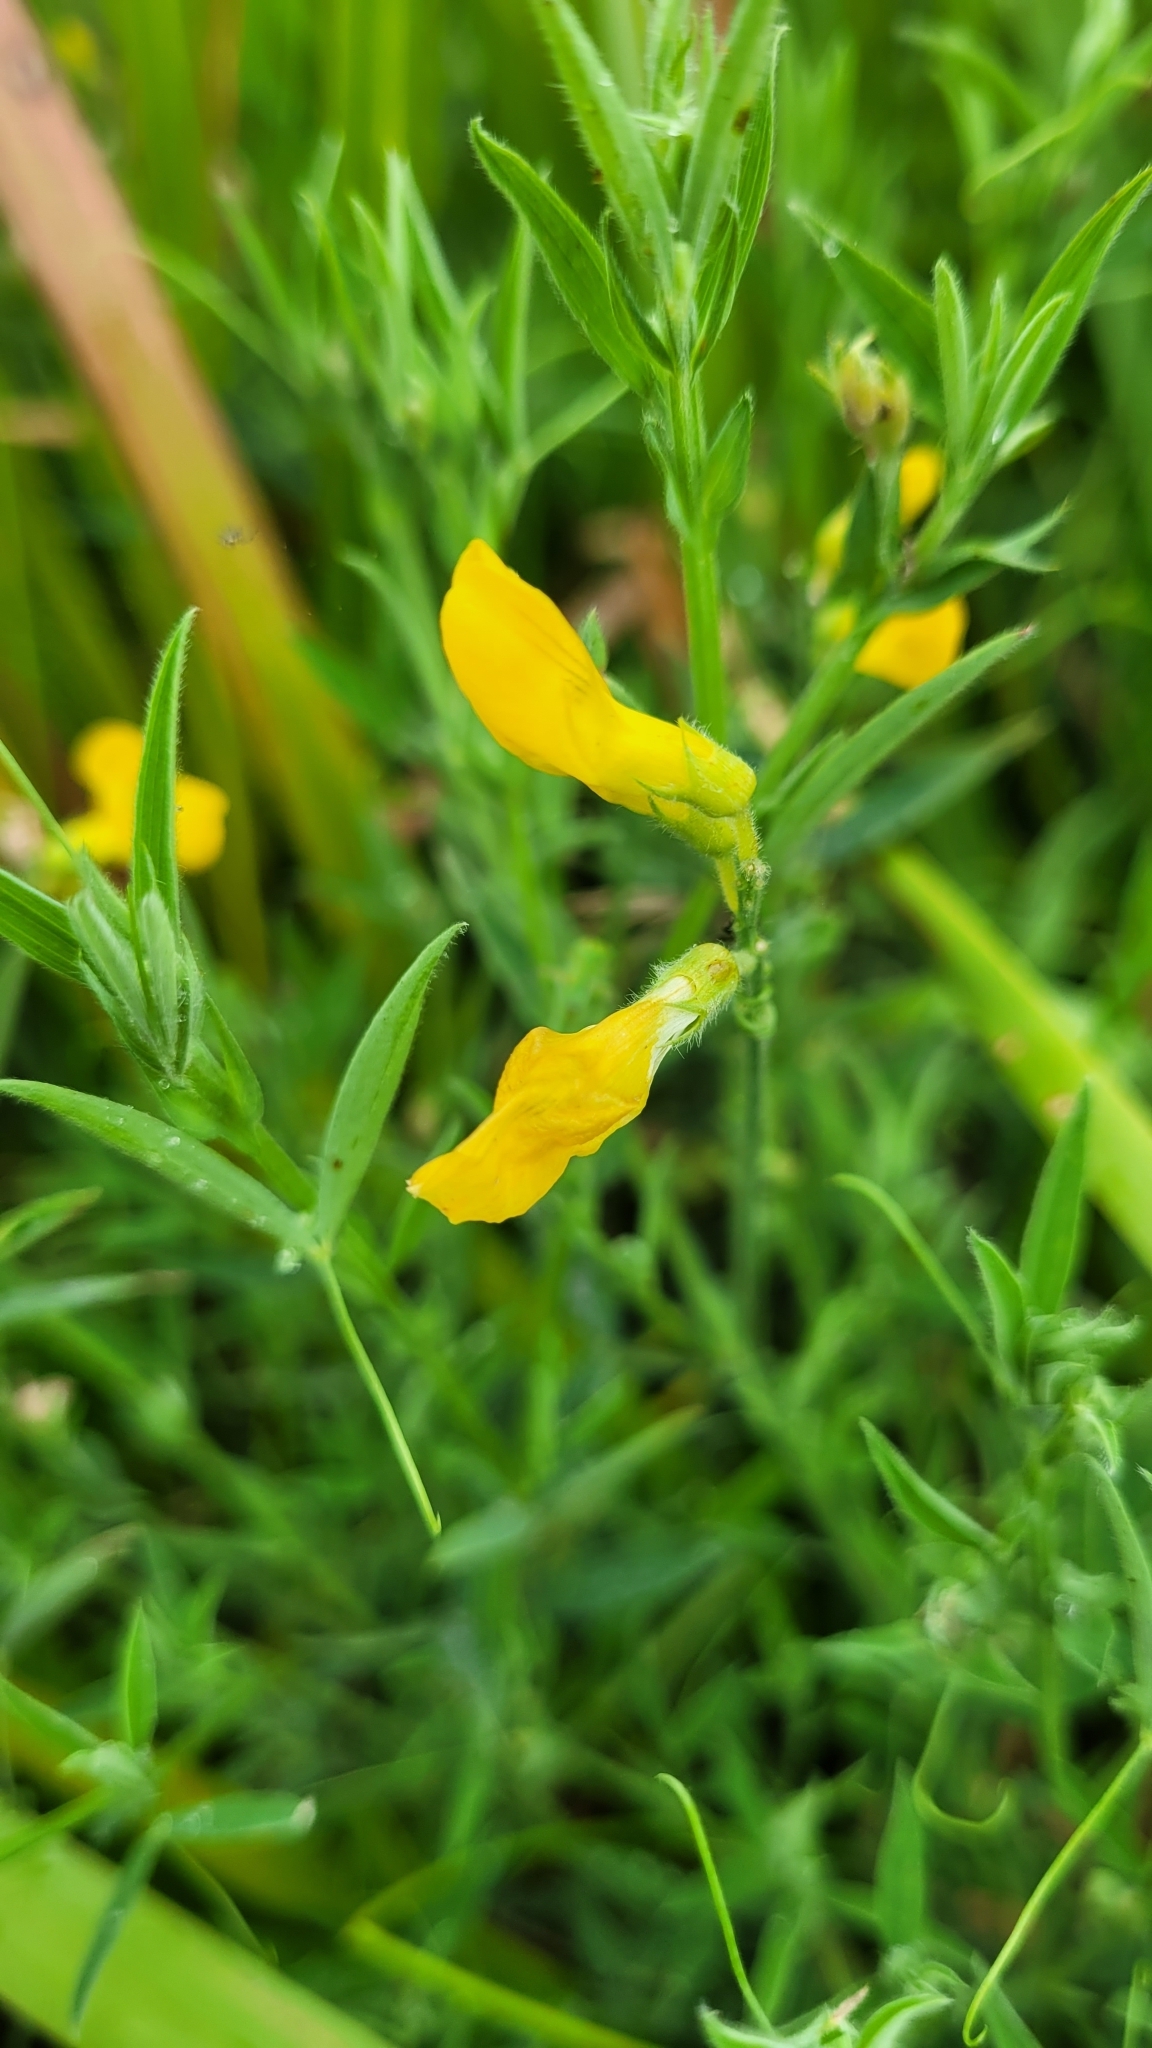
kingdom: Plantae
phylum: Tracheophyta
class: Magnoliopsida
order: Fabales
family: Fabaceae
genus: Lathyrus
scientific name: Lathyrus pratensis
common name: Meadow vetchling
